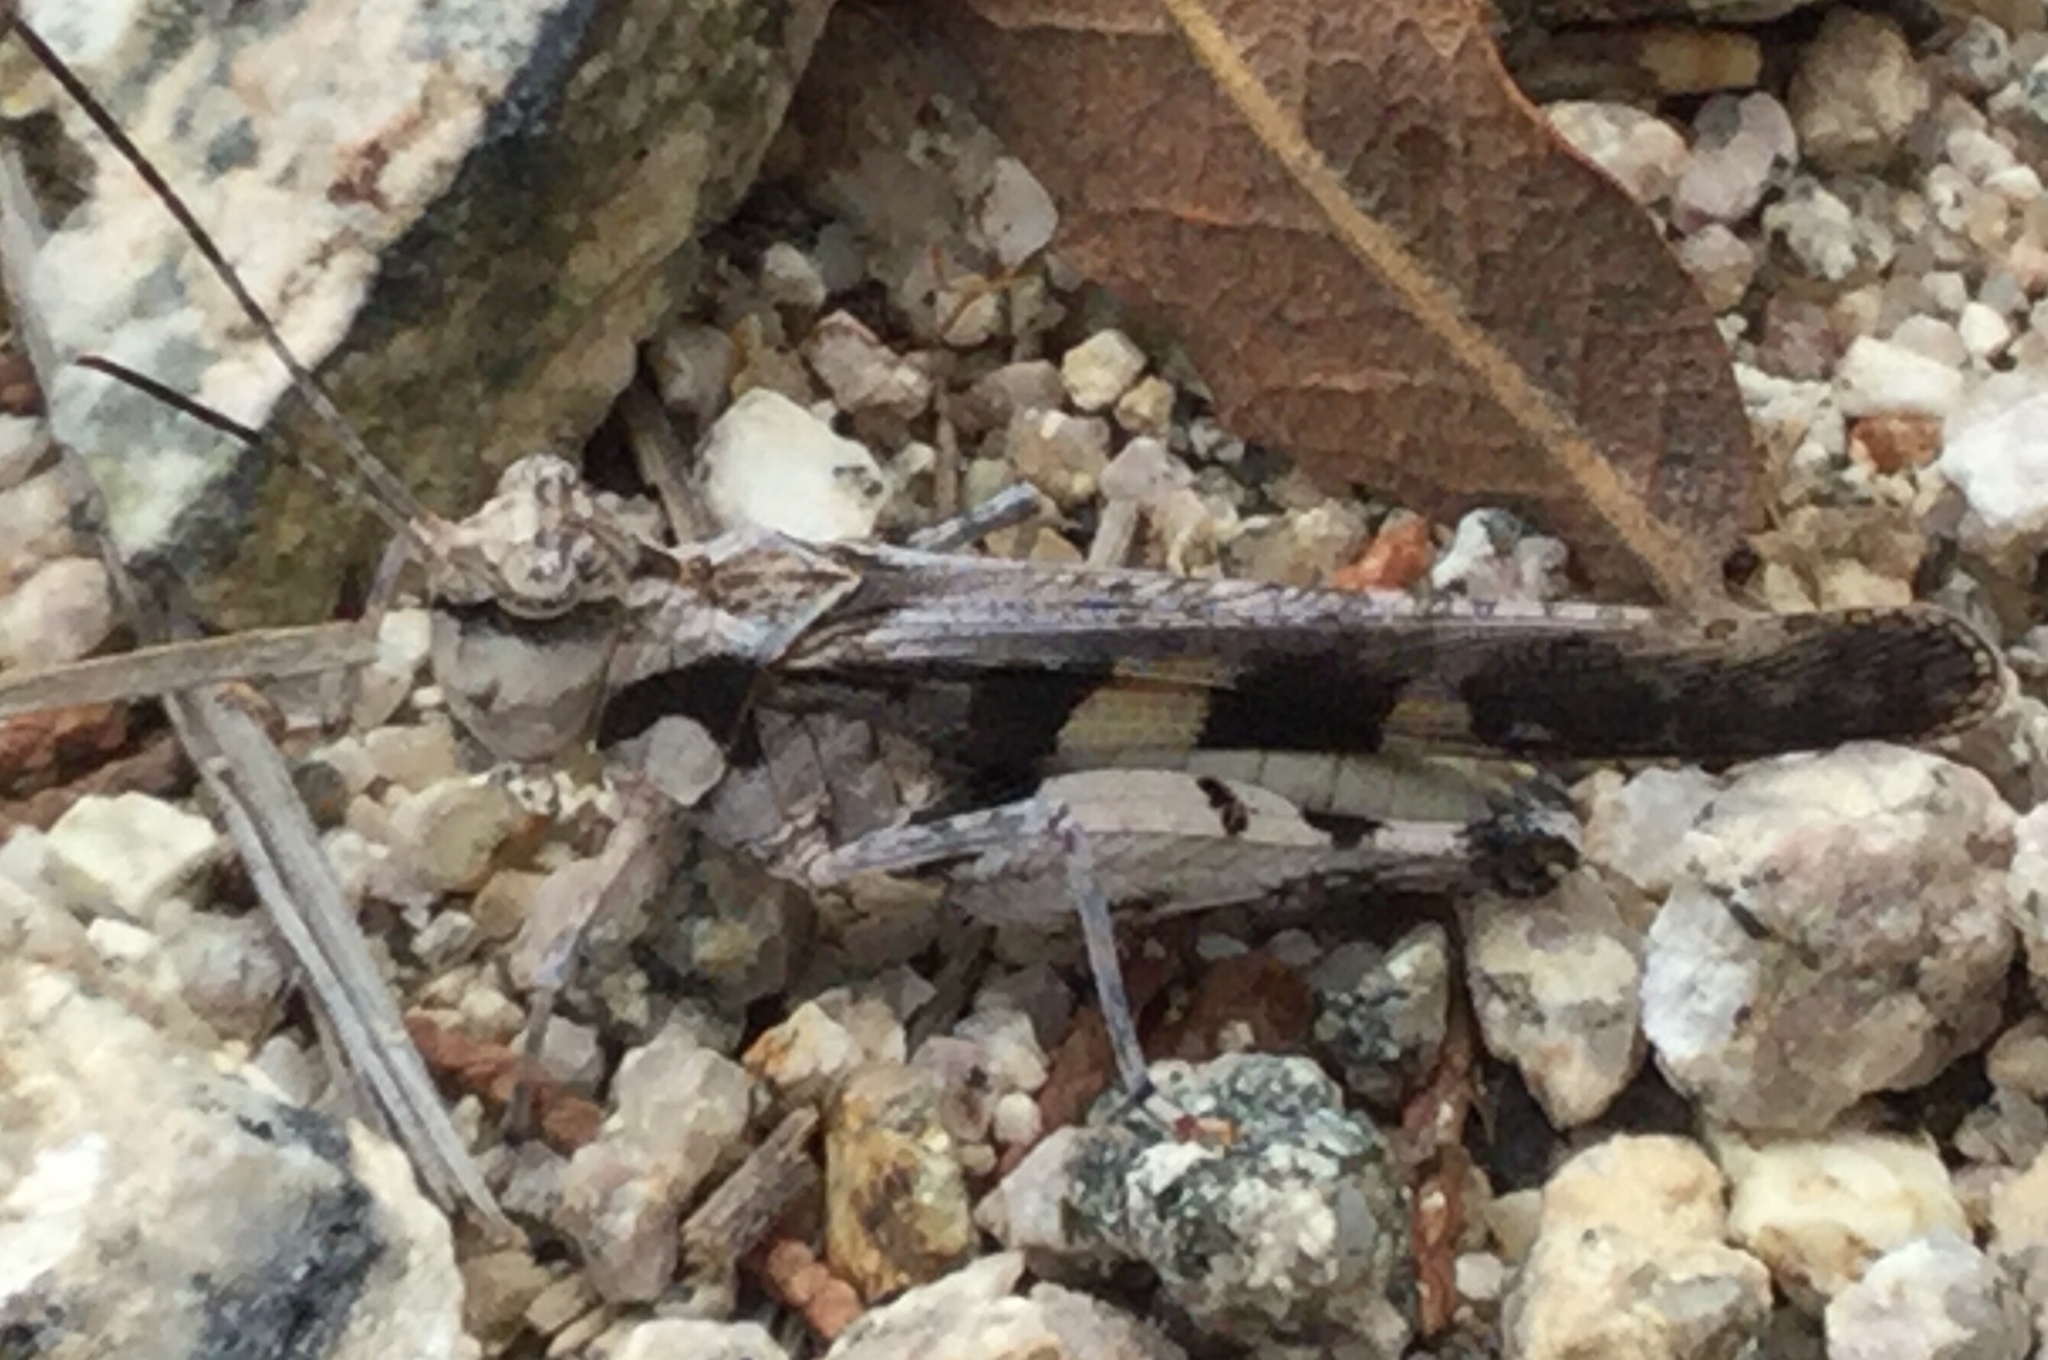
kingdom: Animalia
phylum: Arthropoda
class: Insecta
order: Orthoptera
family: Acrididae
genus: Mestobregma
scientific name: Mestobregma plattei
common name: Platte range grasshopper
